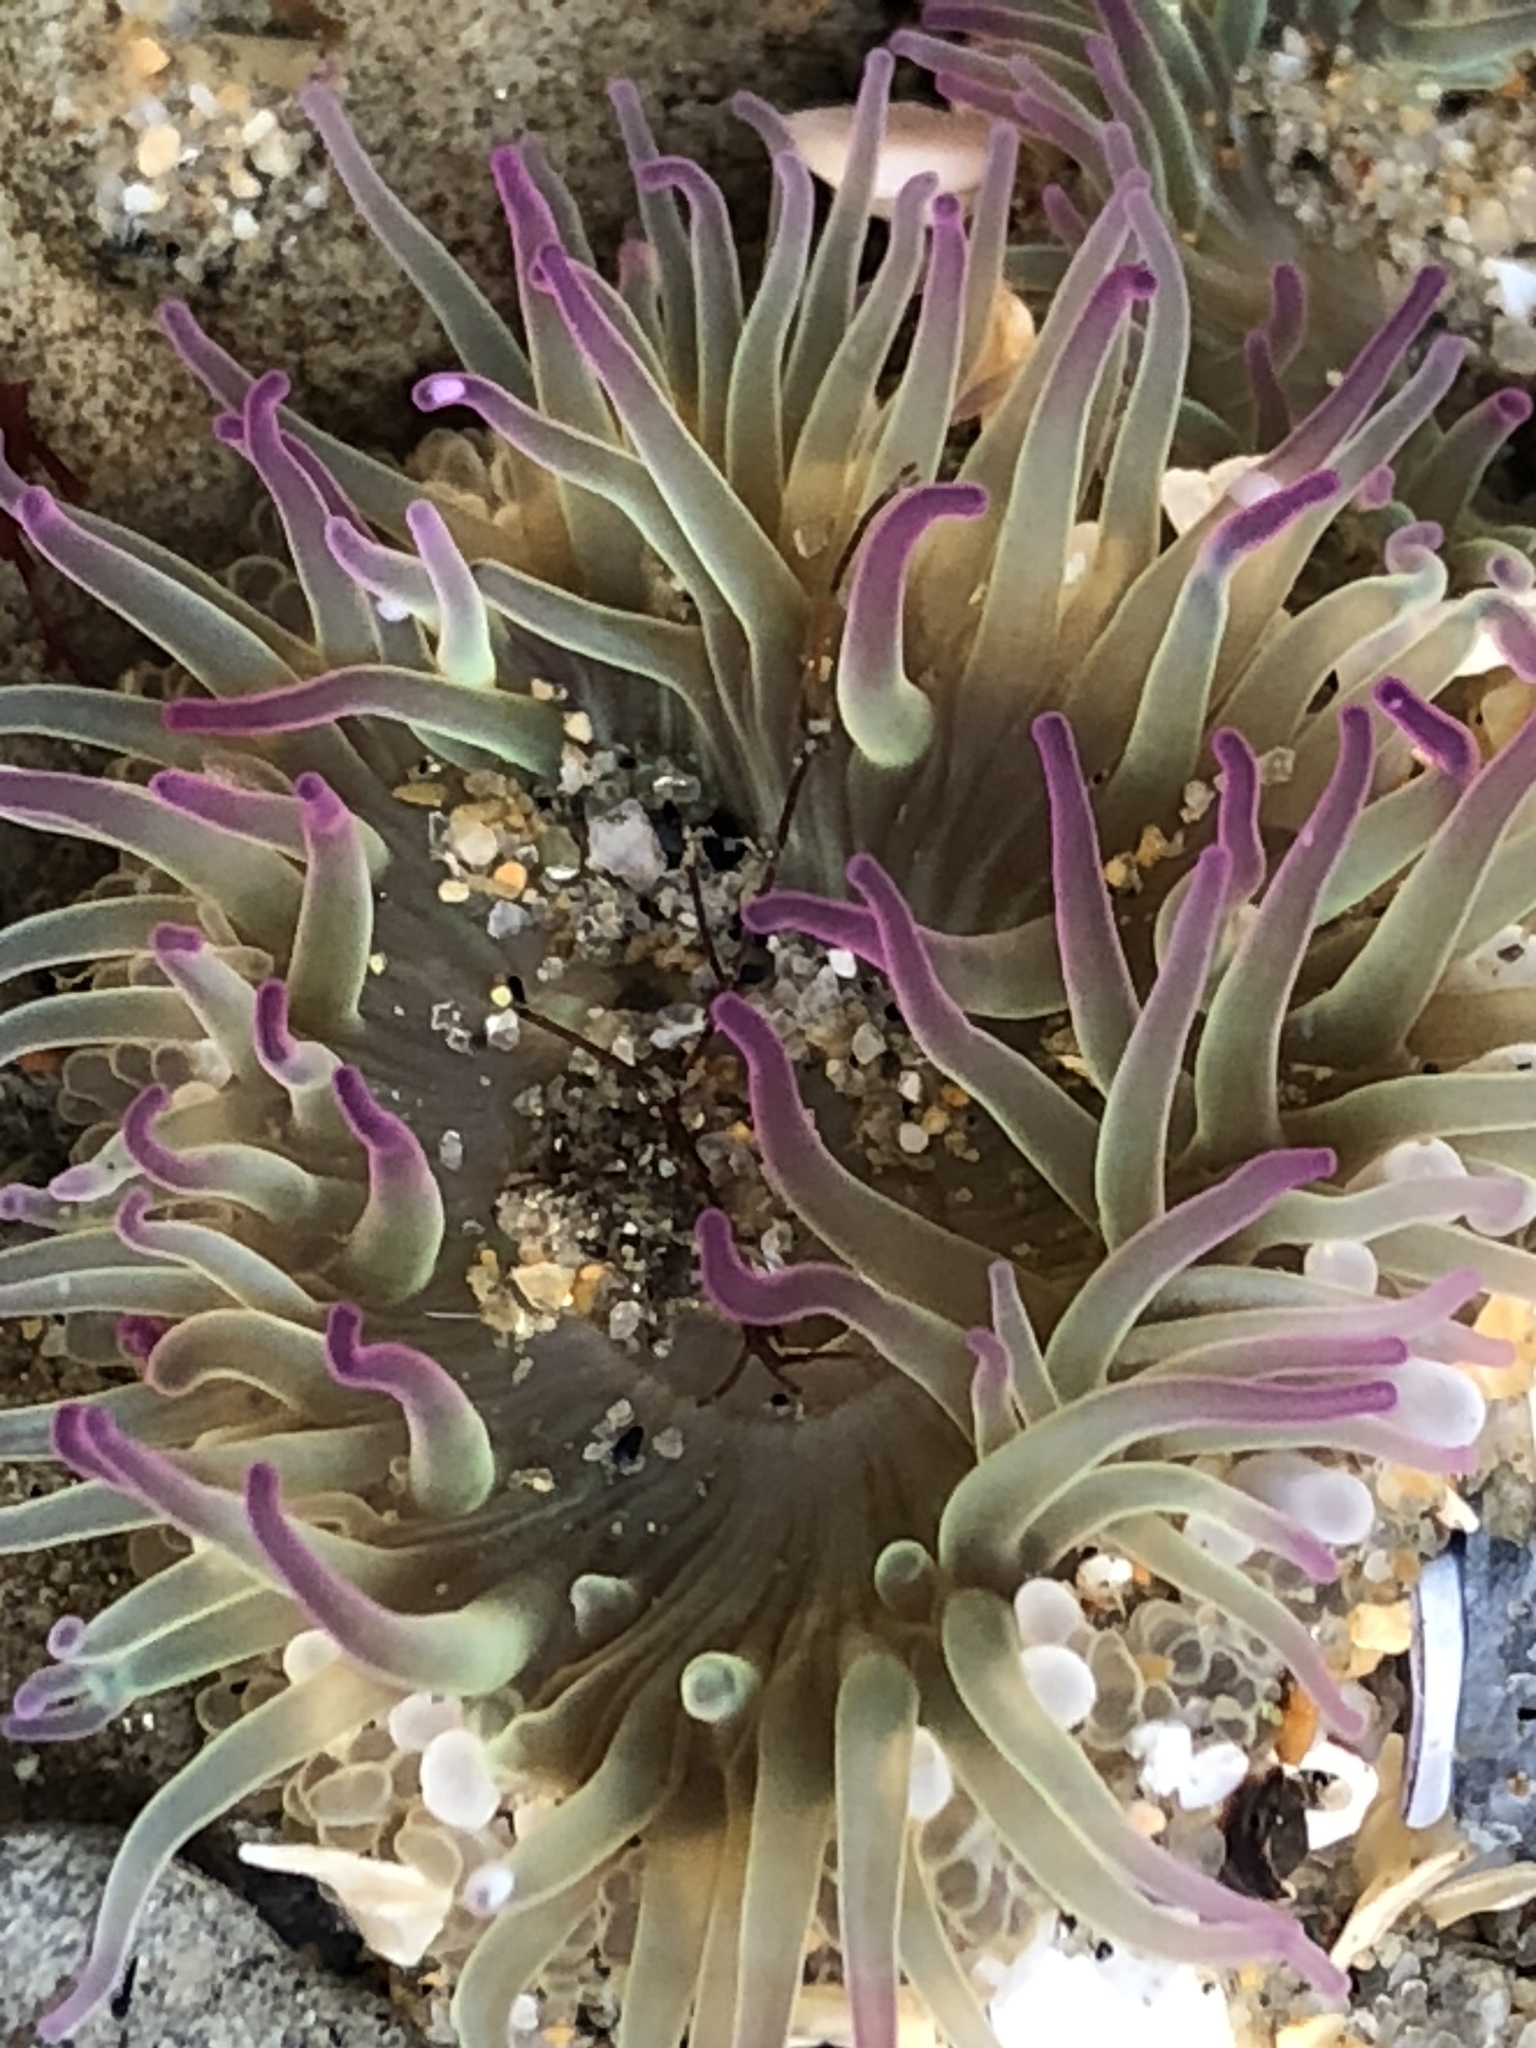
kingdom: Animalia
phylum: Cnidaria
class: Anthozoa
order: Actiniaria
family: Actiniidae
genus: Anthopleura
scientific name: Anthopleura elegantissima
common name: Clonal anemone
